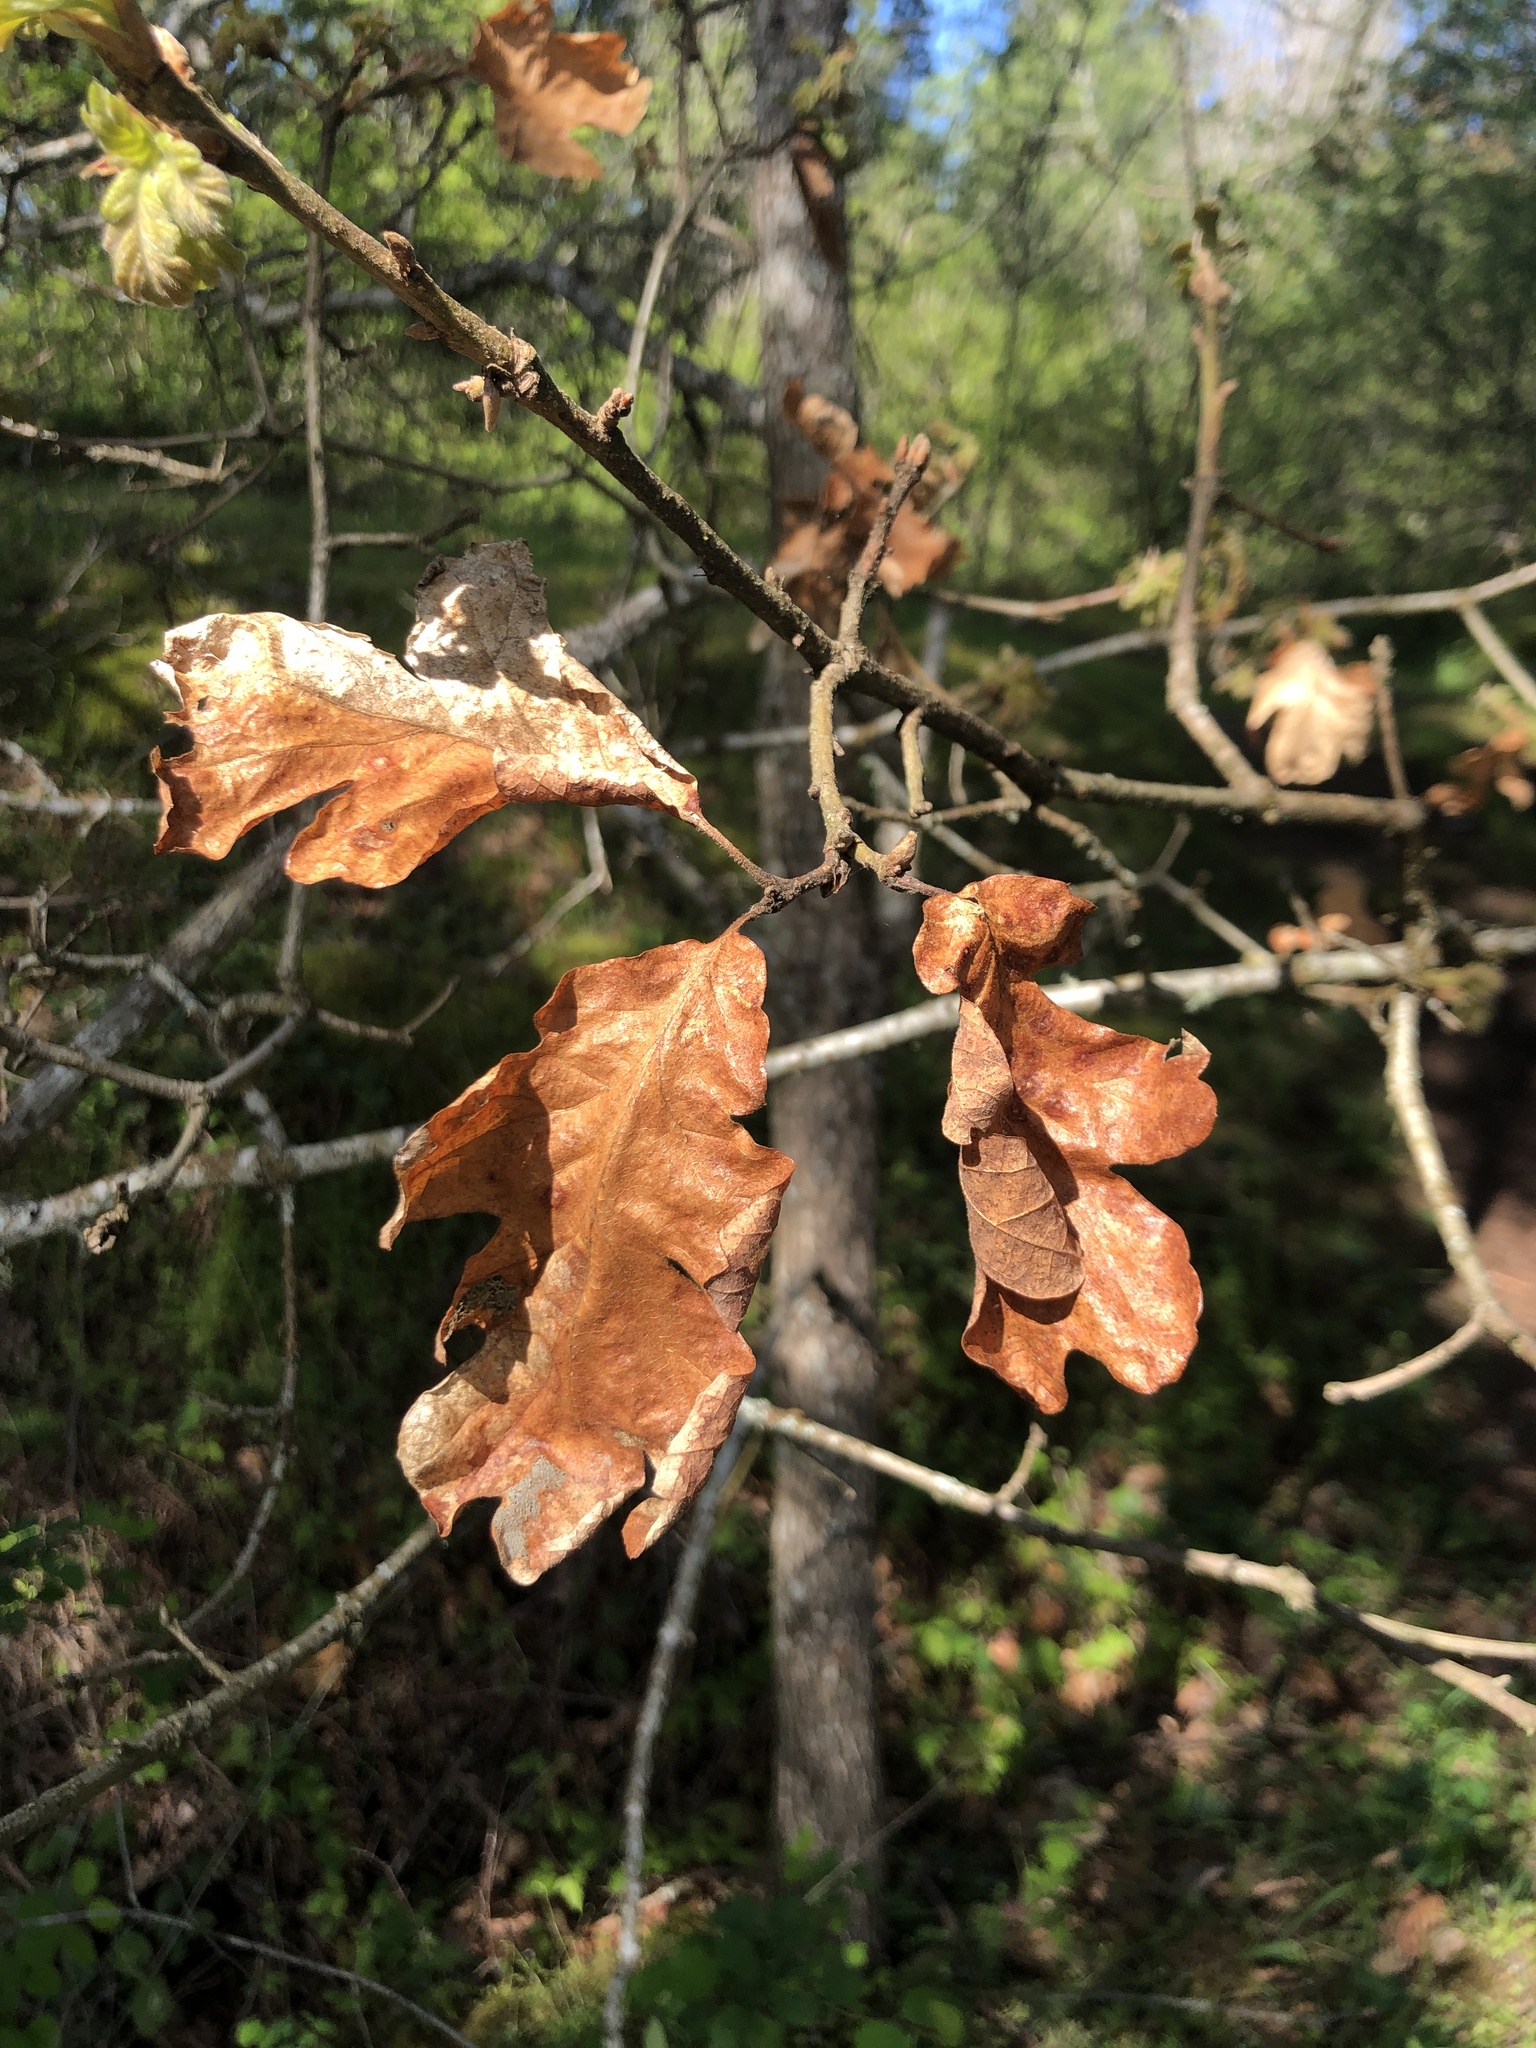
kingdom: Plantae
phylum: Tracheophyta
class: Magnoliopsida
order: Fagales
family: Fagaceae
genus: Quercus
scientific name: Quercus garryana
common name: Garry oak
